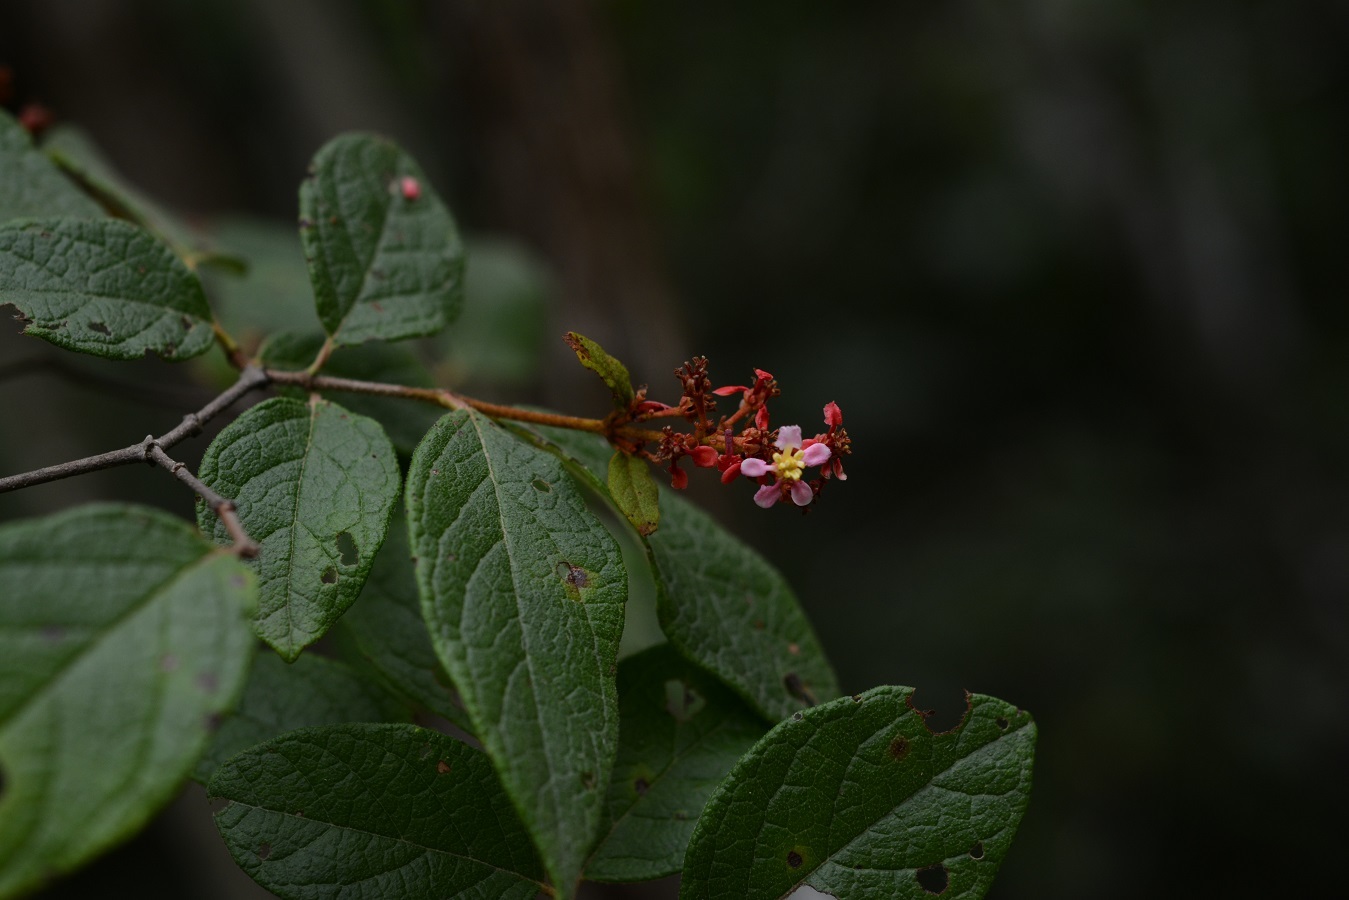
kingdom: Plantae
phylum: Tracheophyta
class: Magnoliopsida
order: Malpighiales
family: Malpighiaceae
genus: Heteropterys
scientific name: Heteropterys brachiata
